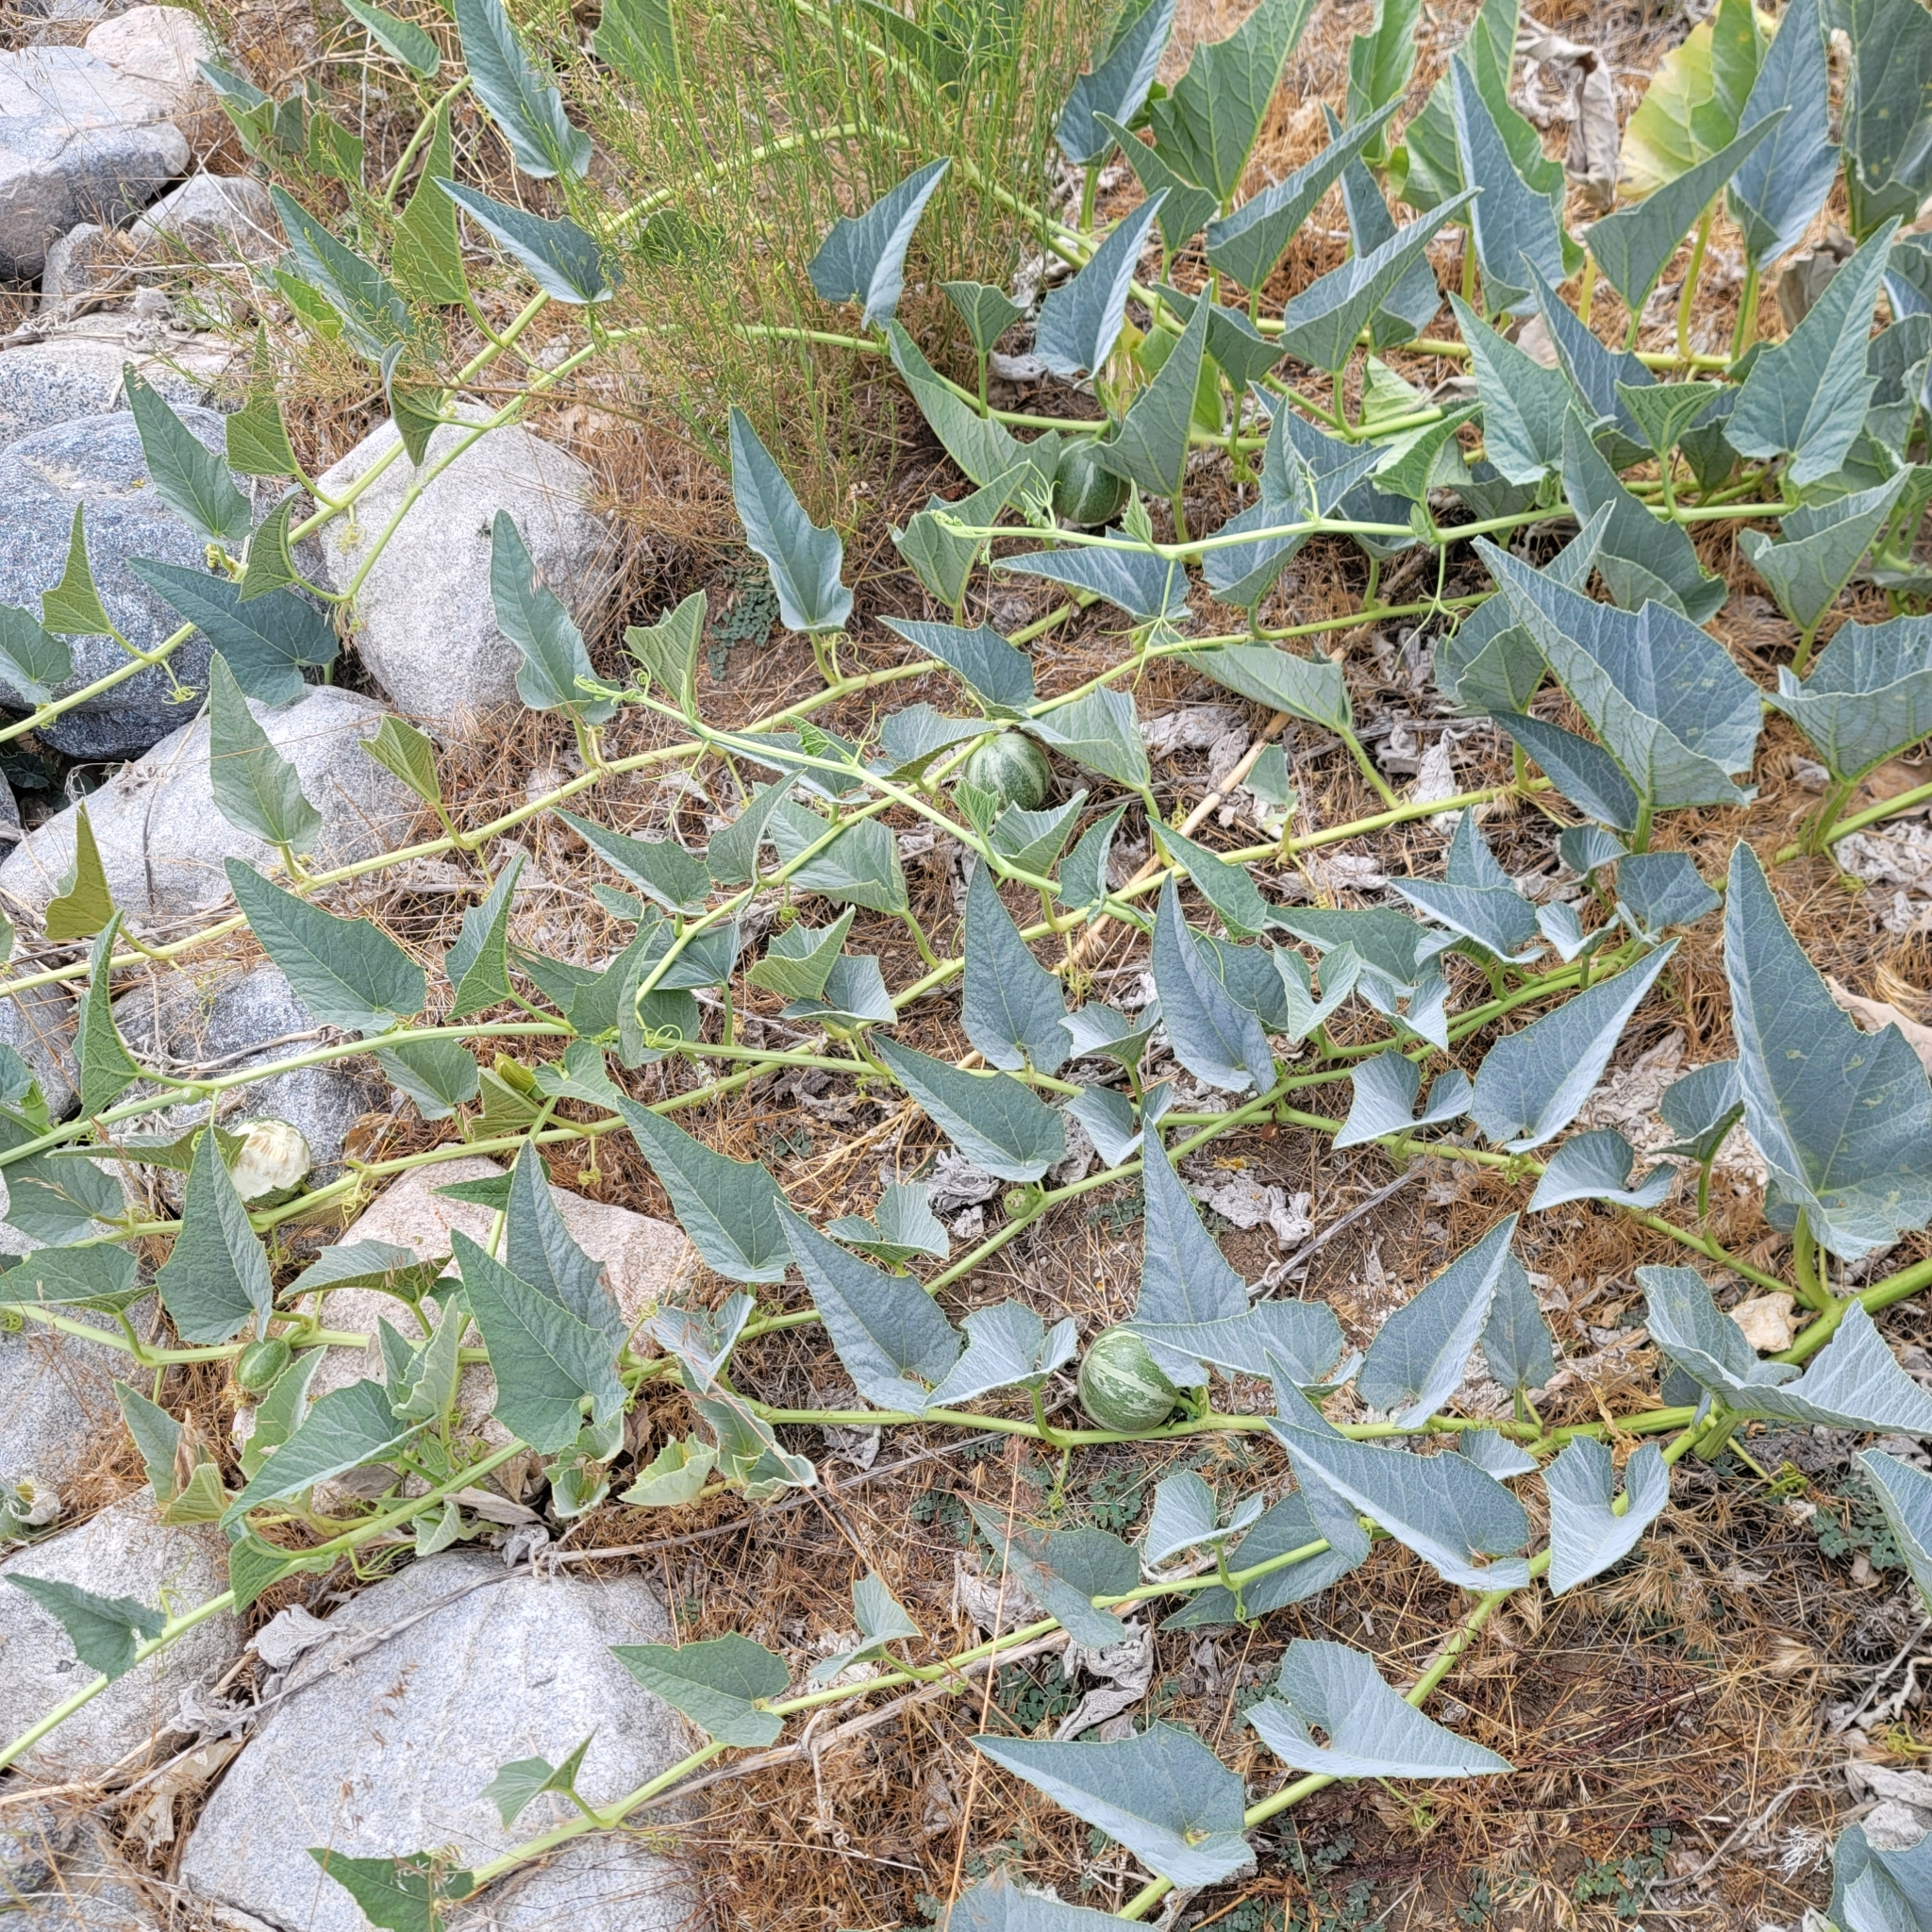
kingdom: Plantae
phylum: Tracheophyta
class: Magnoliopsida
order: Cucurbitales
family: Cucurbitaceae
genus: Cucurbita
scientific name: Cucurbita foetidissima
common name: Buffalo gourd
